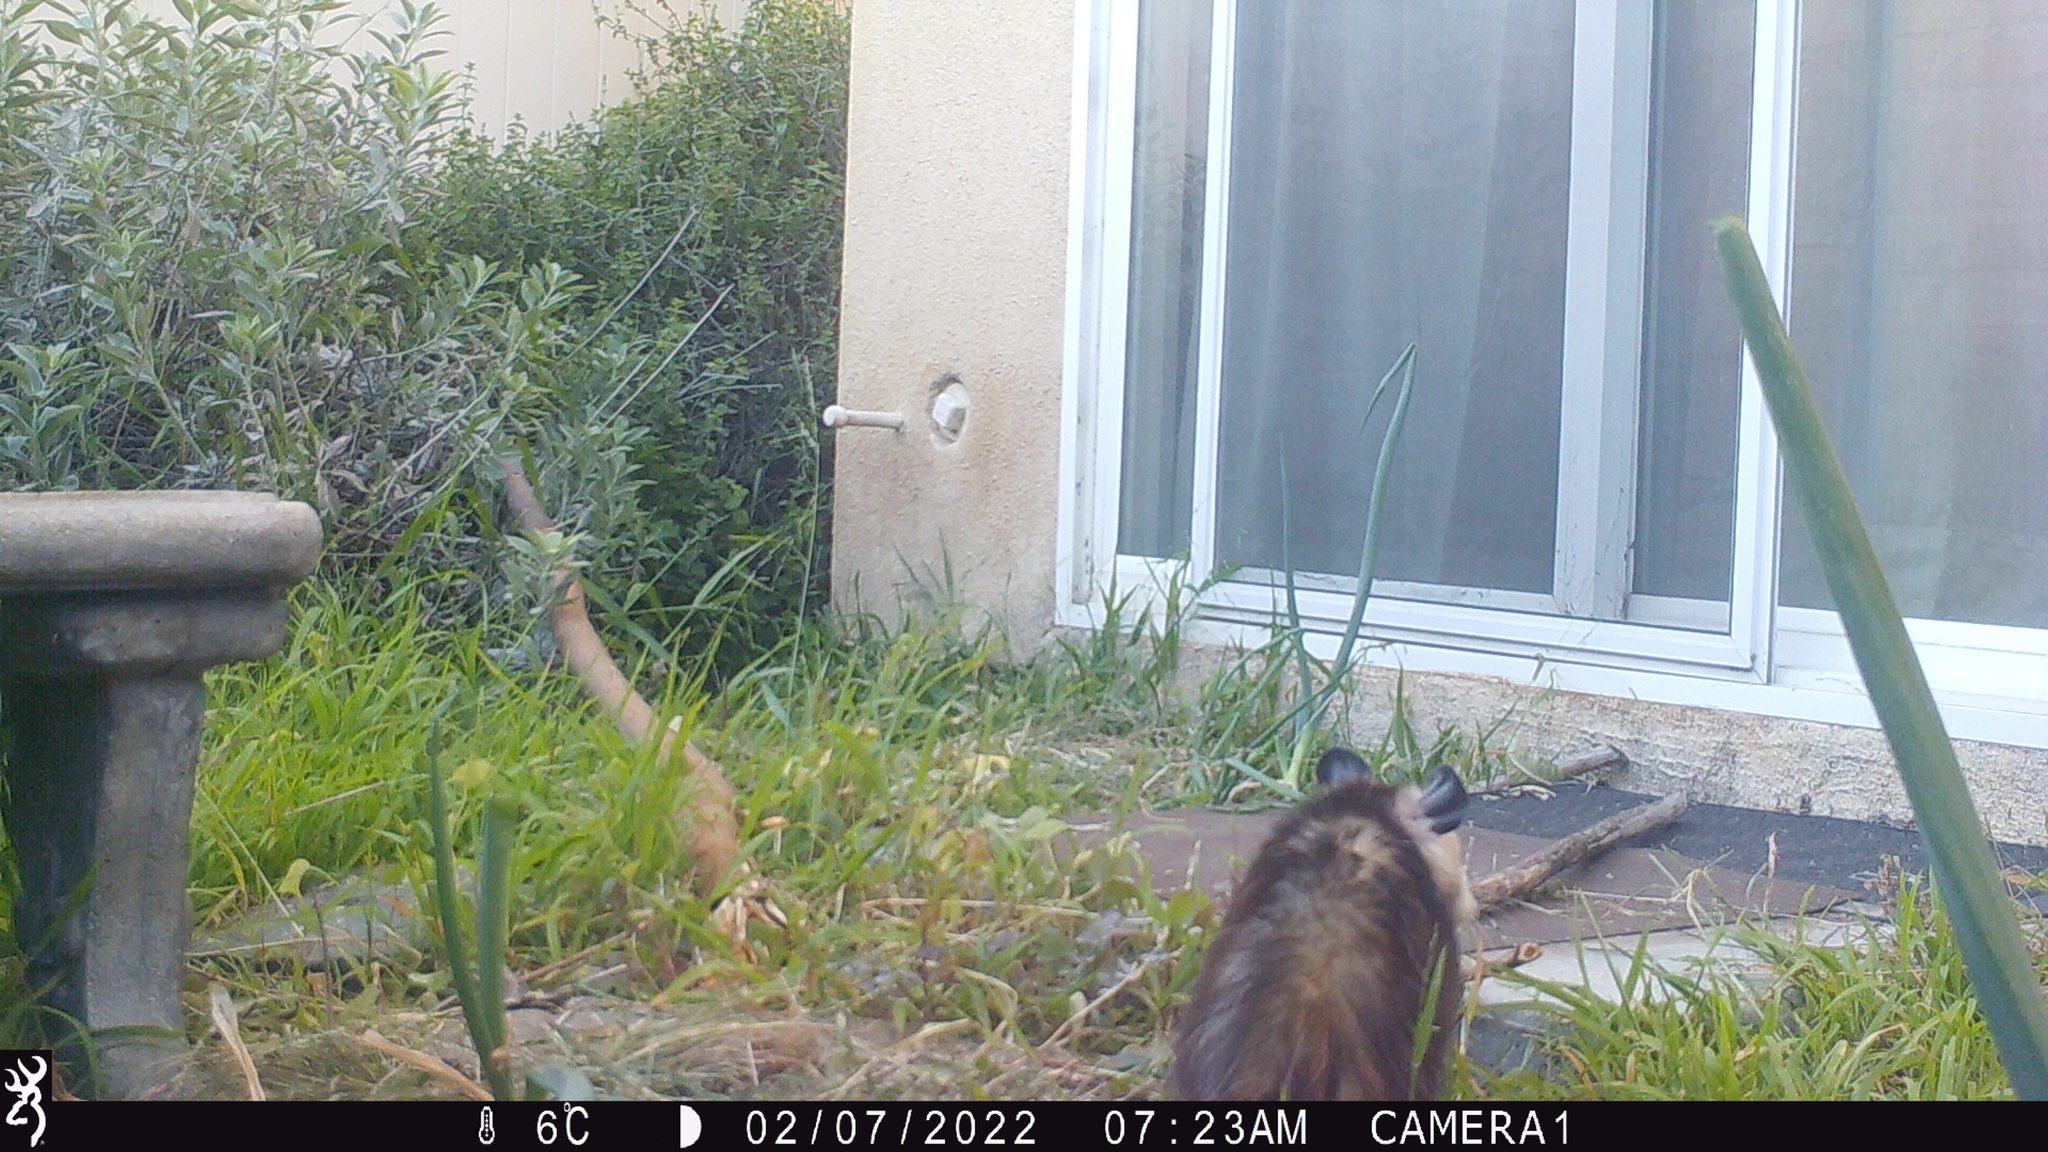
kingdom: Animalia
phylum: Chordata
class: Mammalia
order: Didelphimorphia
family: Didelphidae
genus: Didelphis
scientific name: Didelphis virginiana
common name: Virginia opossum
